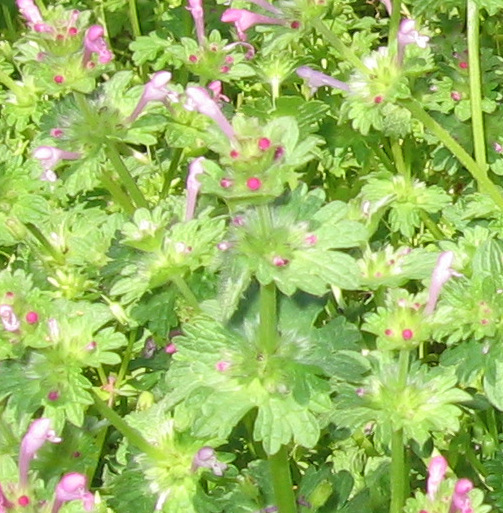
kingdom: Plantae
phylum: Tracheophyta
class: Magnoliopsida
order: Lamiales
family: Lamiaceae
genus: Lamium
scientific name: Lamium amplexicaule
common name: Henbit dead-nettle
